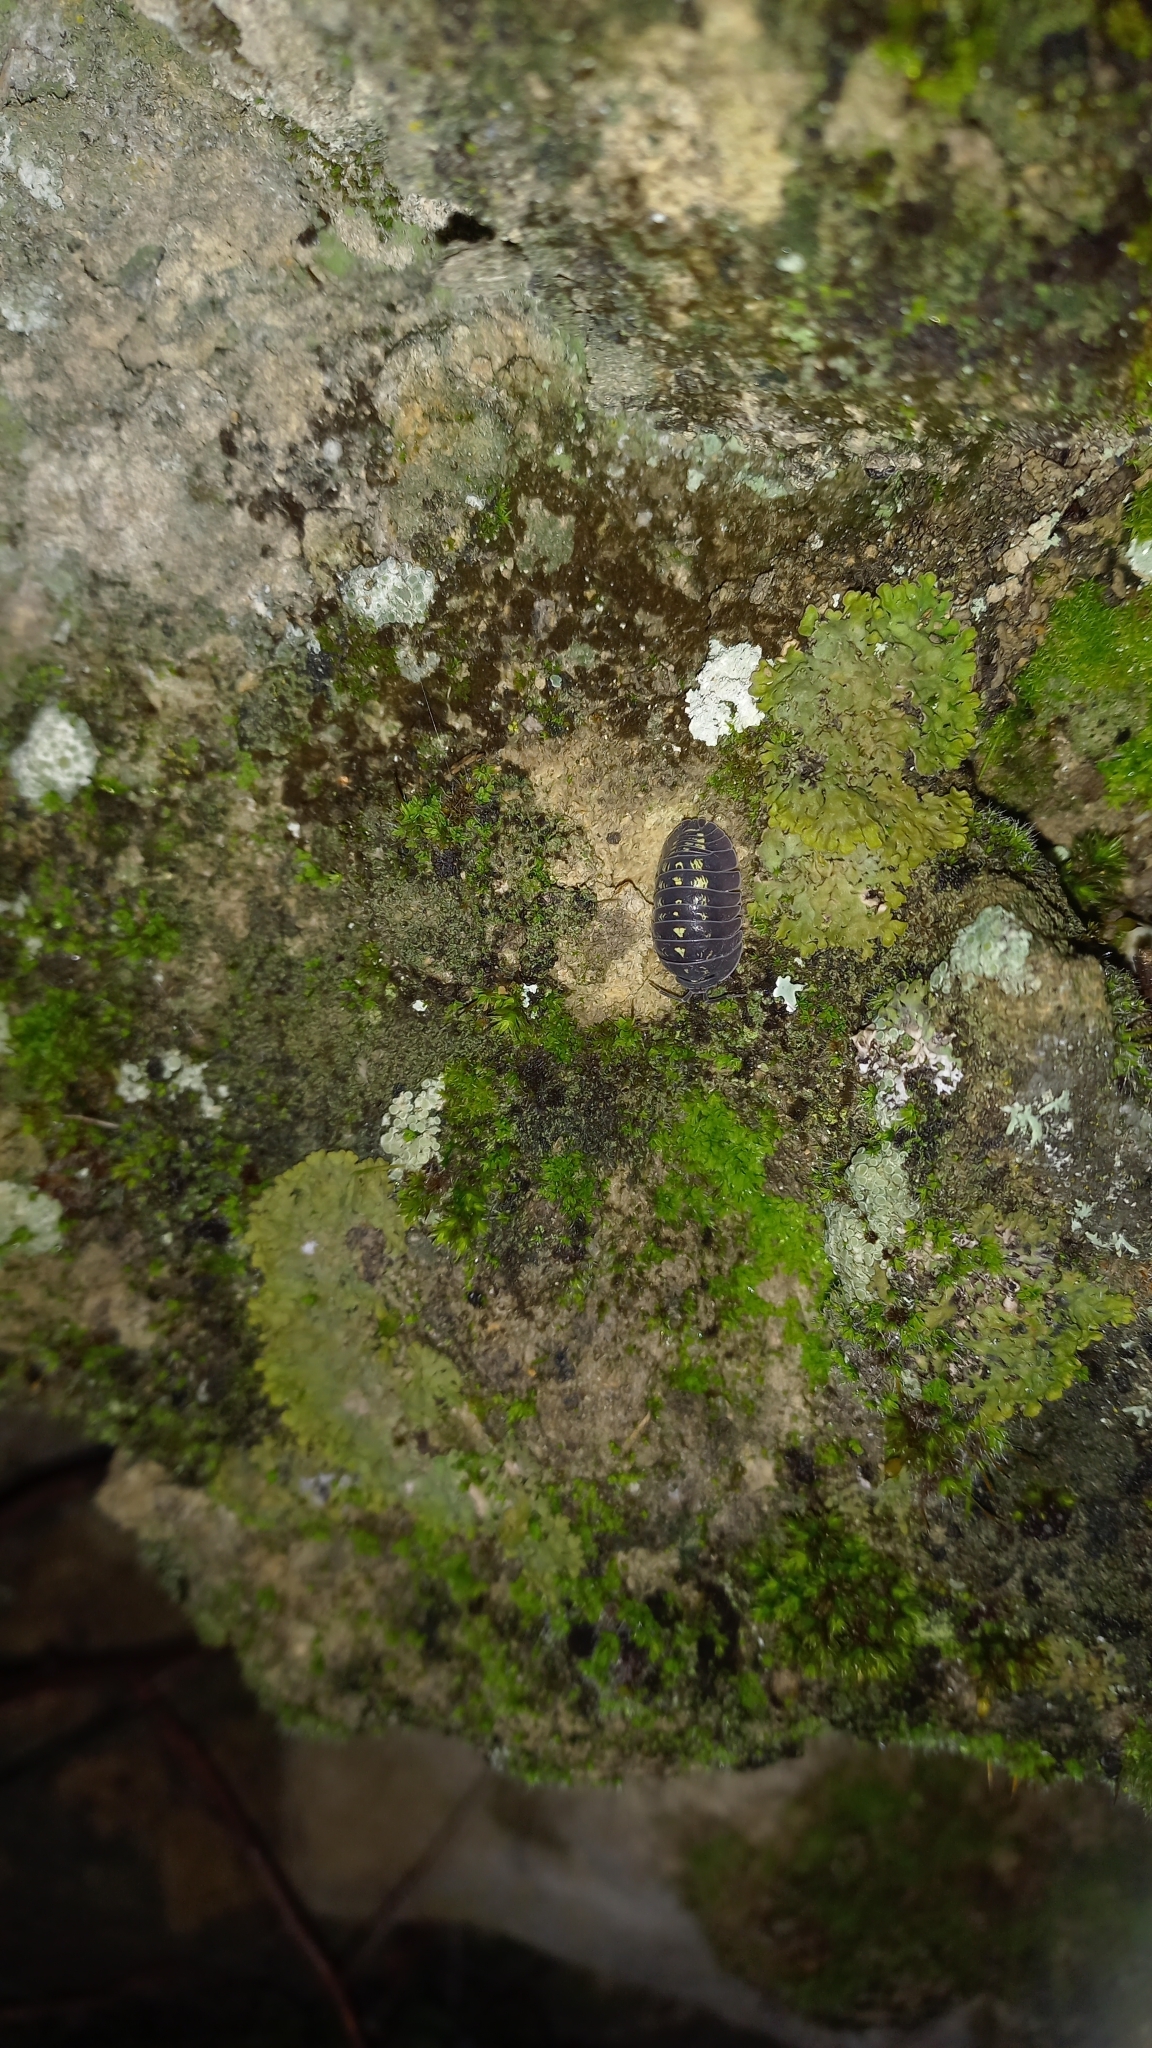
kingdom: Animalia
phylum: Arthropoda
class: Malacostraca
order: Isopoda
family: Armadillidiidae
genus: Armadillidium
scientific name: Armadillidium depressum
